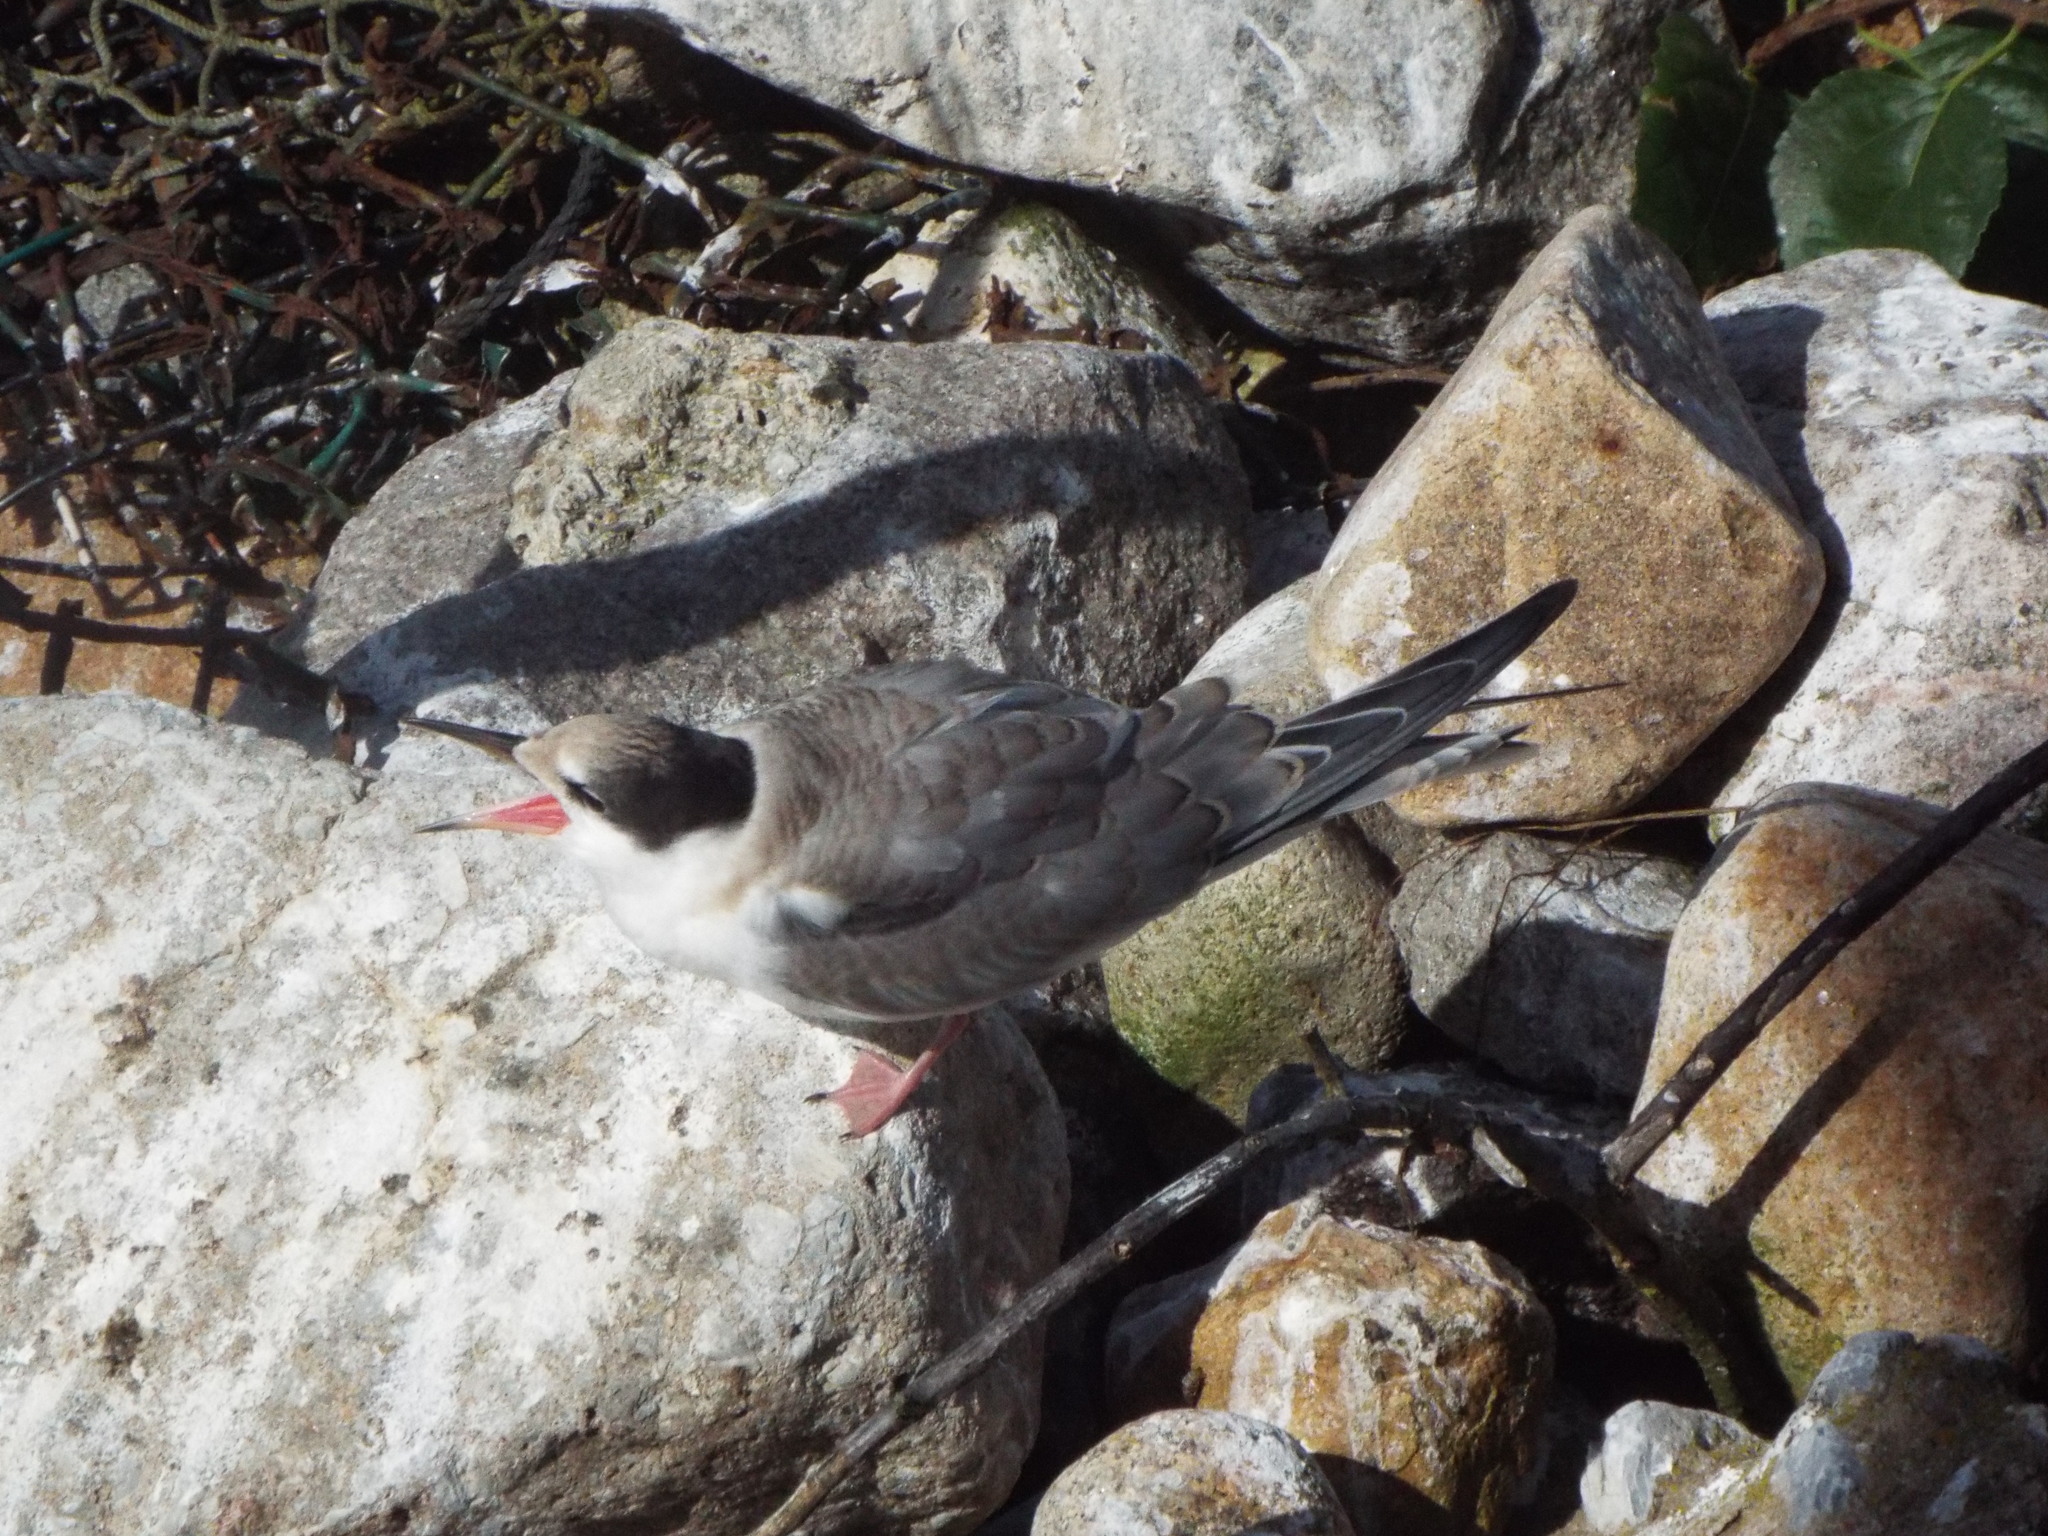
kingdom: Animalia
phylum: Chordata
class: Aves
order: Charadriiformes
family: Laridae
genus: Sterna
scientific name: Sterna hirundo
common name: Common tern
